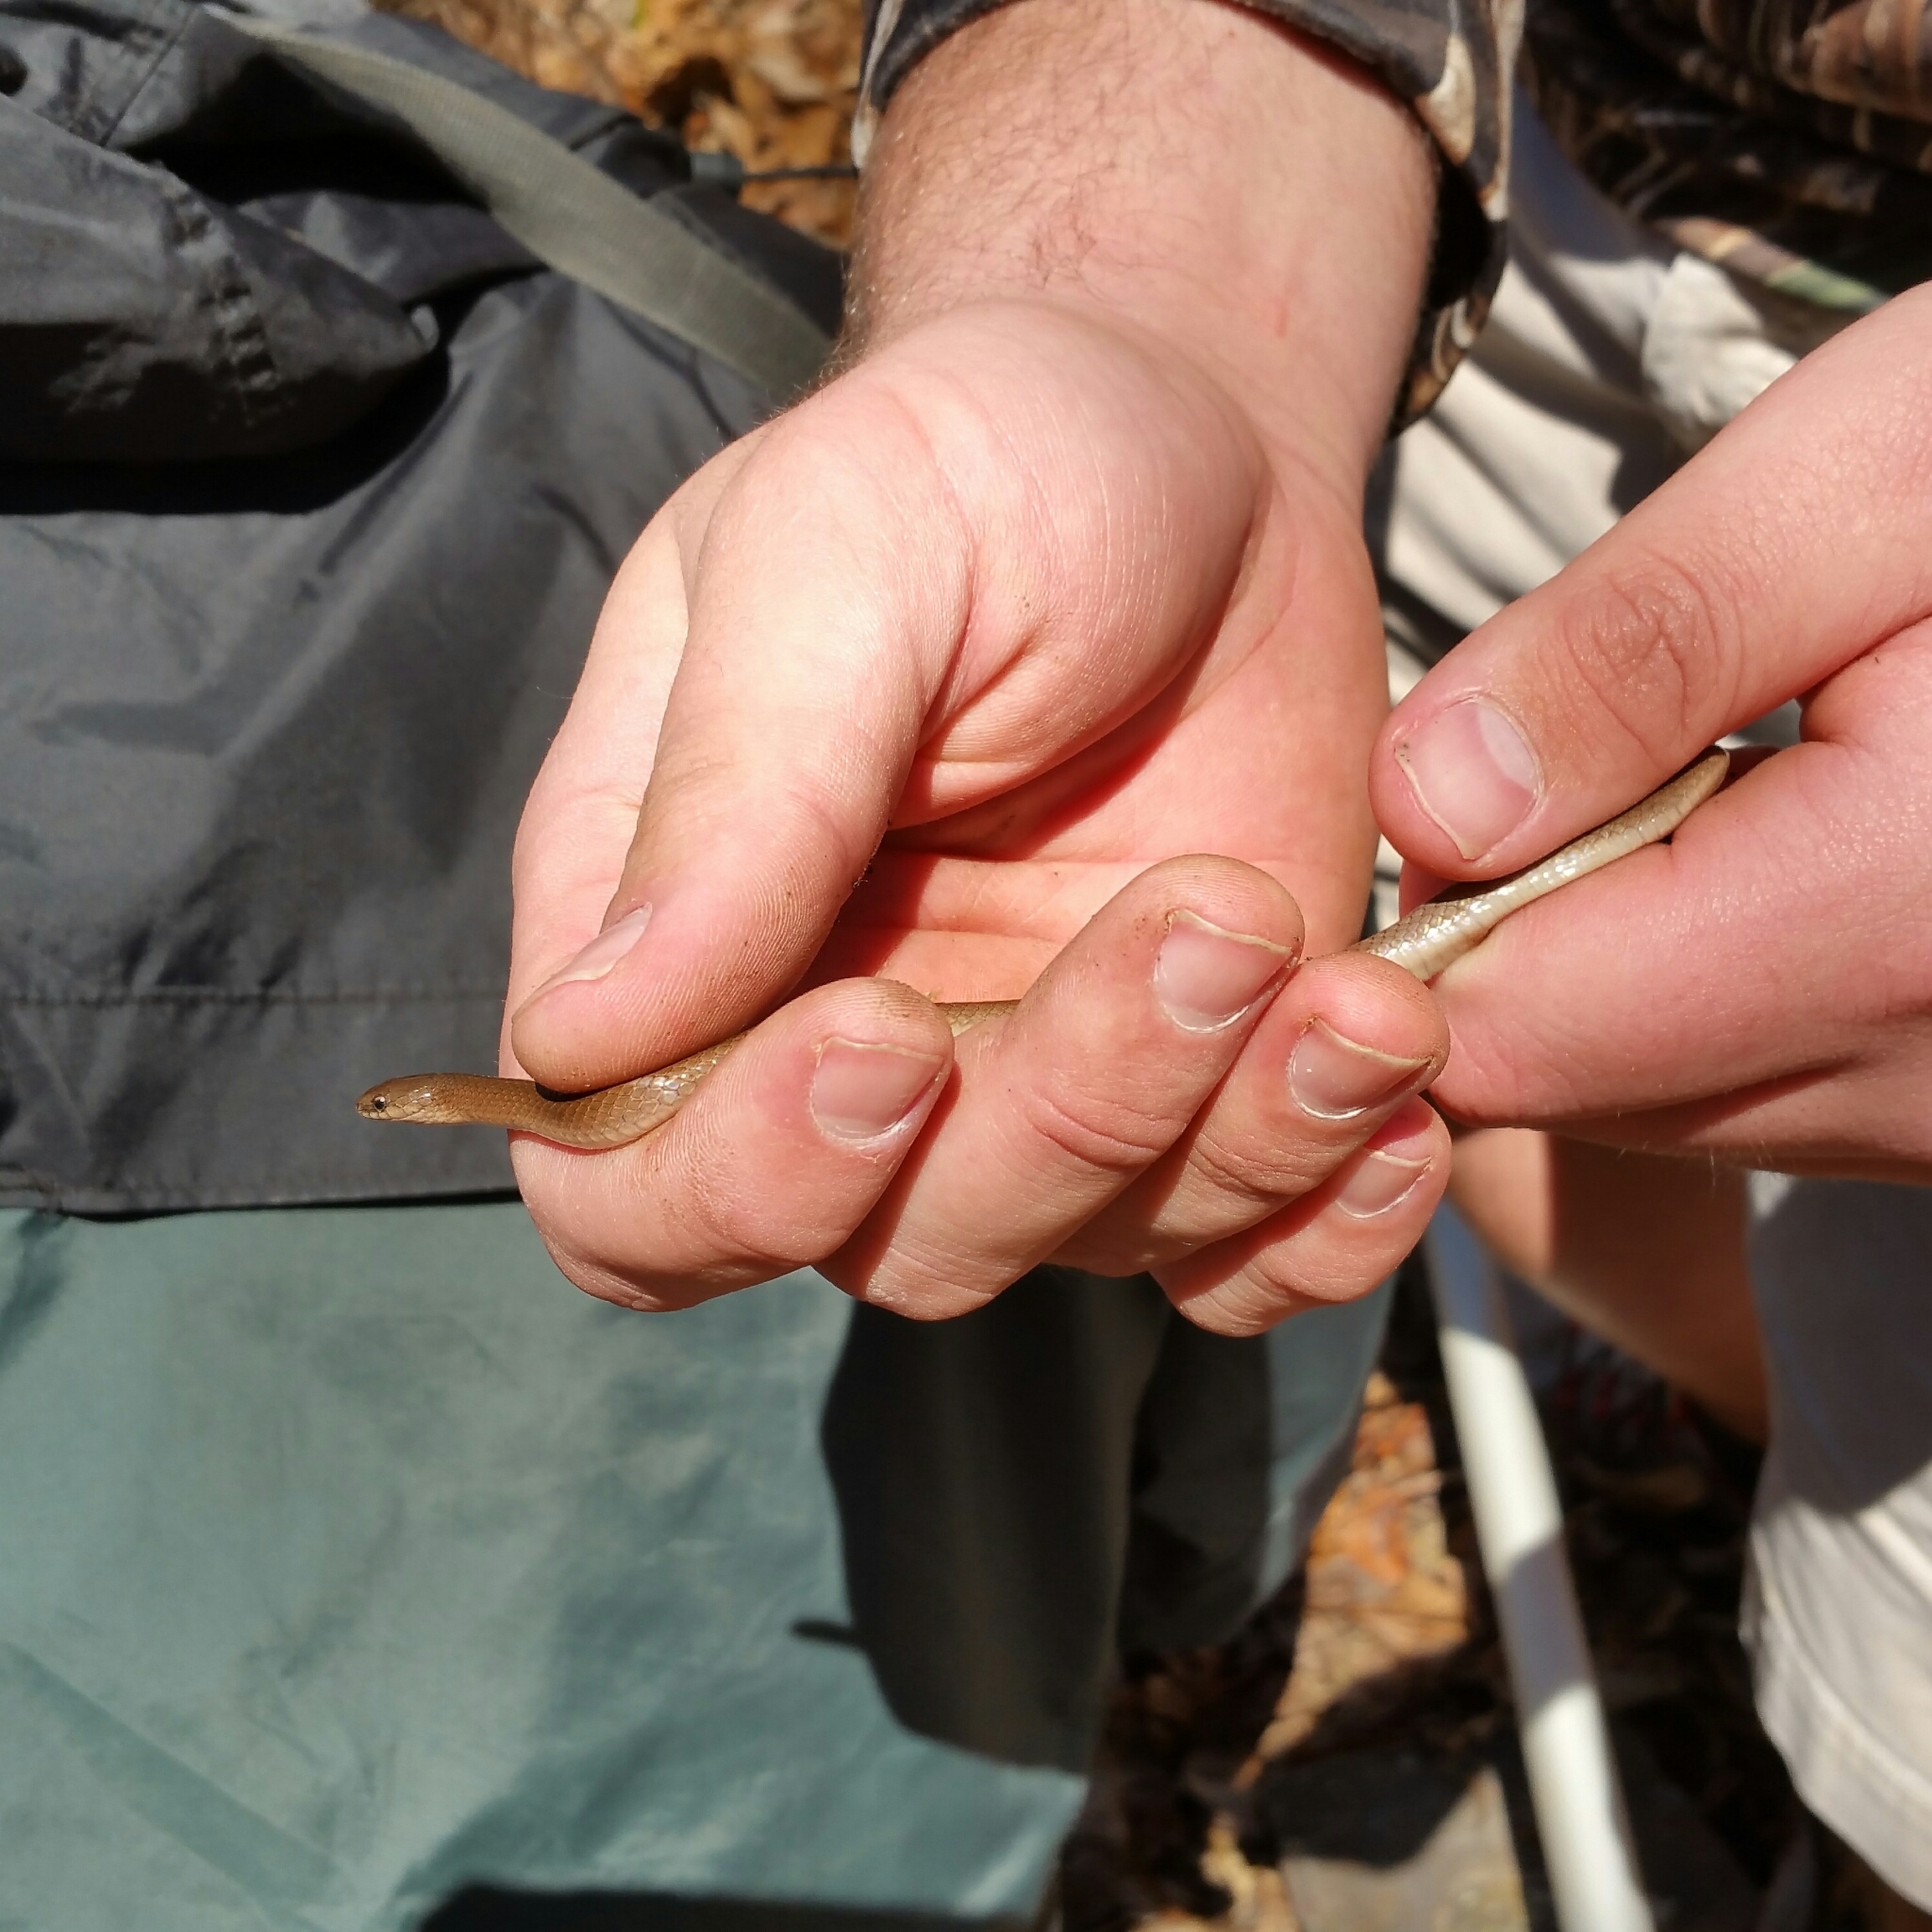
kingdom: Animalia
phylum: Chordata
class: Squamata
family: Colubridae
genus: Virginia
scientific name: Virginia valeriae
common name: Smooth earth snake
